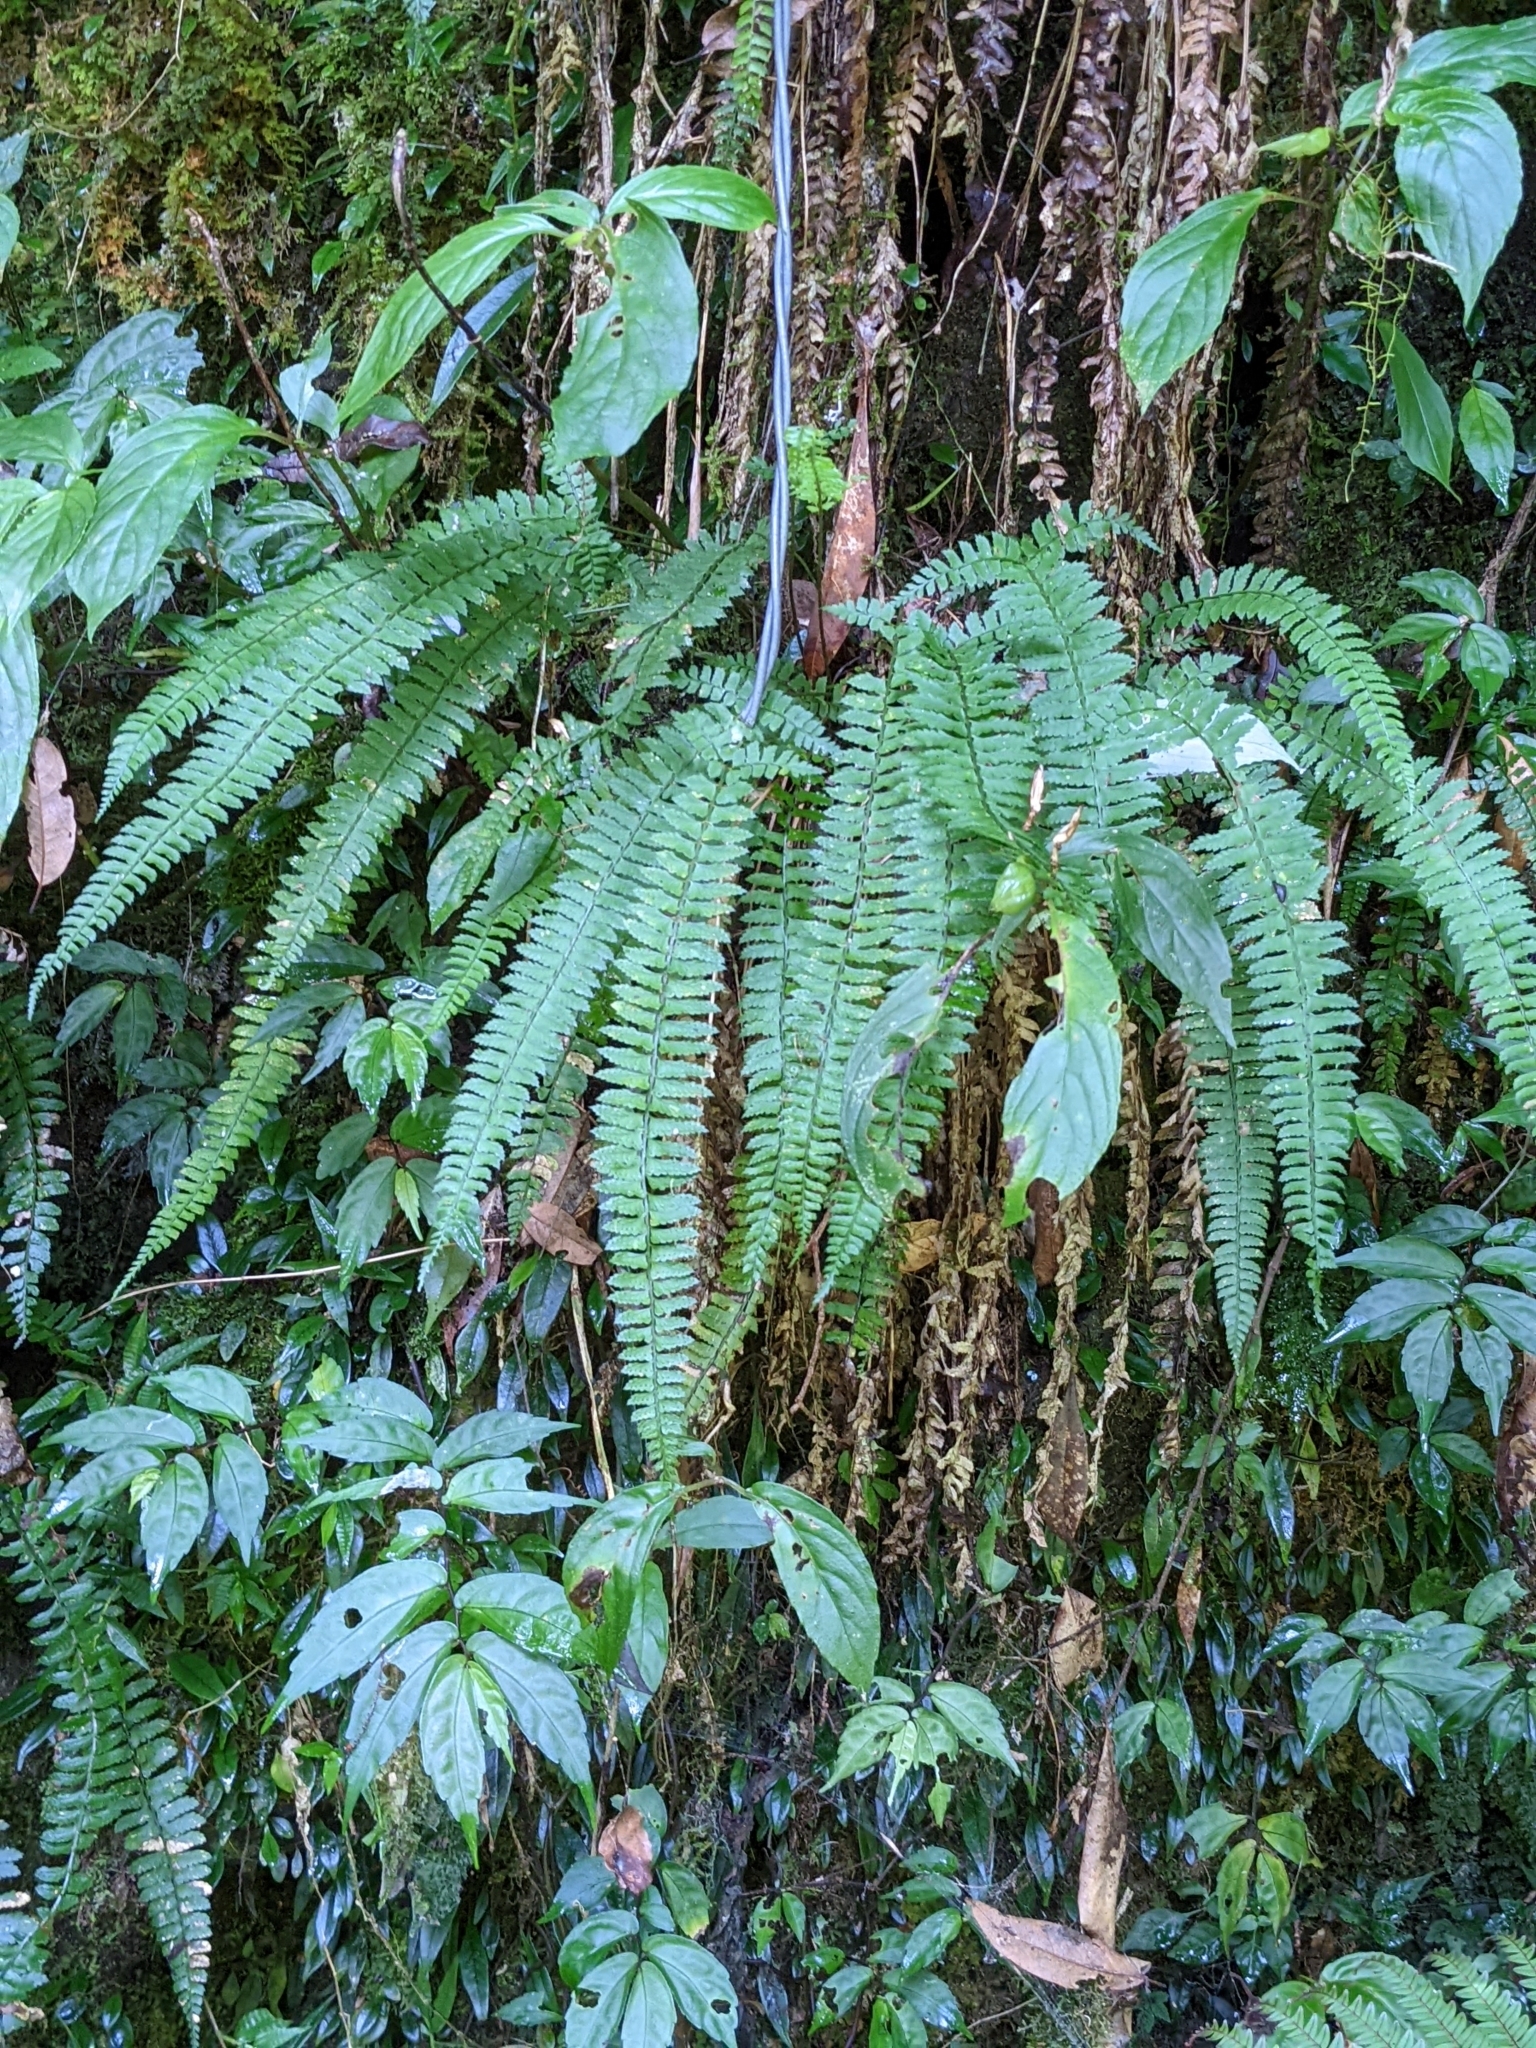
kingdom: Plantae
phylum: Tracheophyta
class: Polypodiopsida
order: Polypodiales
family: Dryopteridaceae
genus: Polystichum
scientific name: Polystichum hancockii
